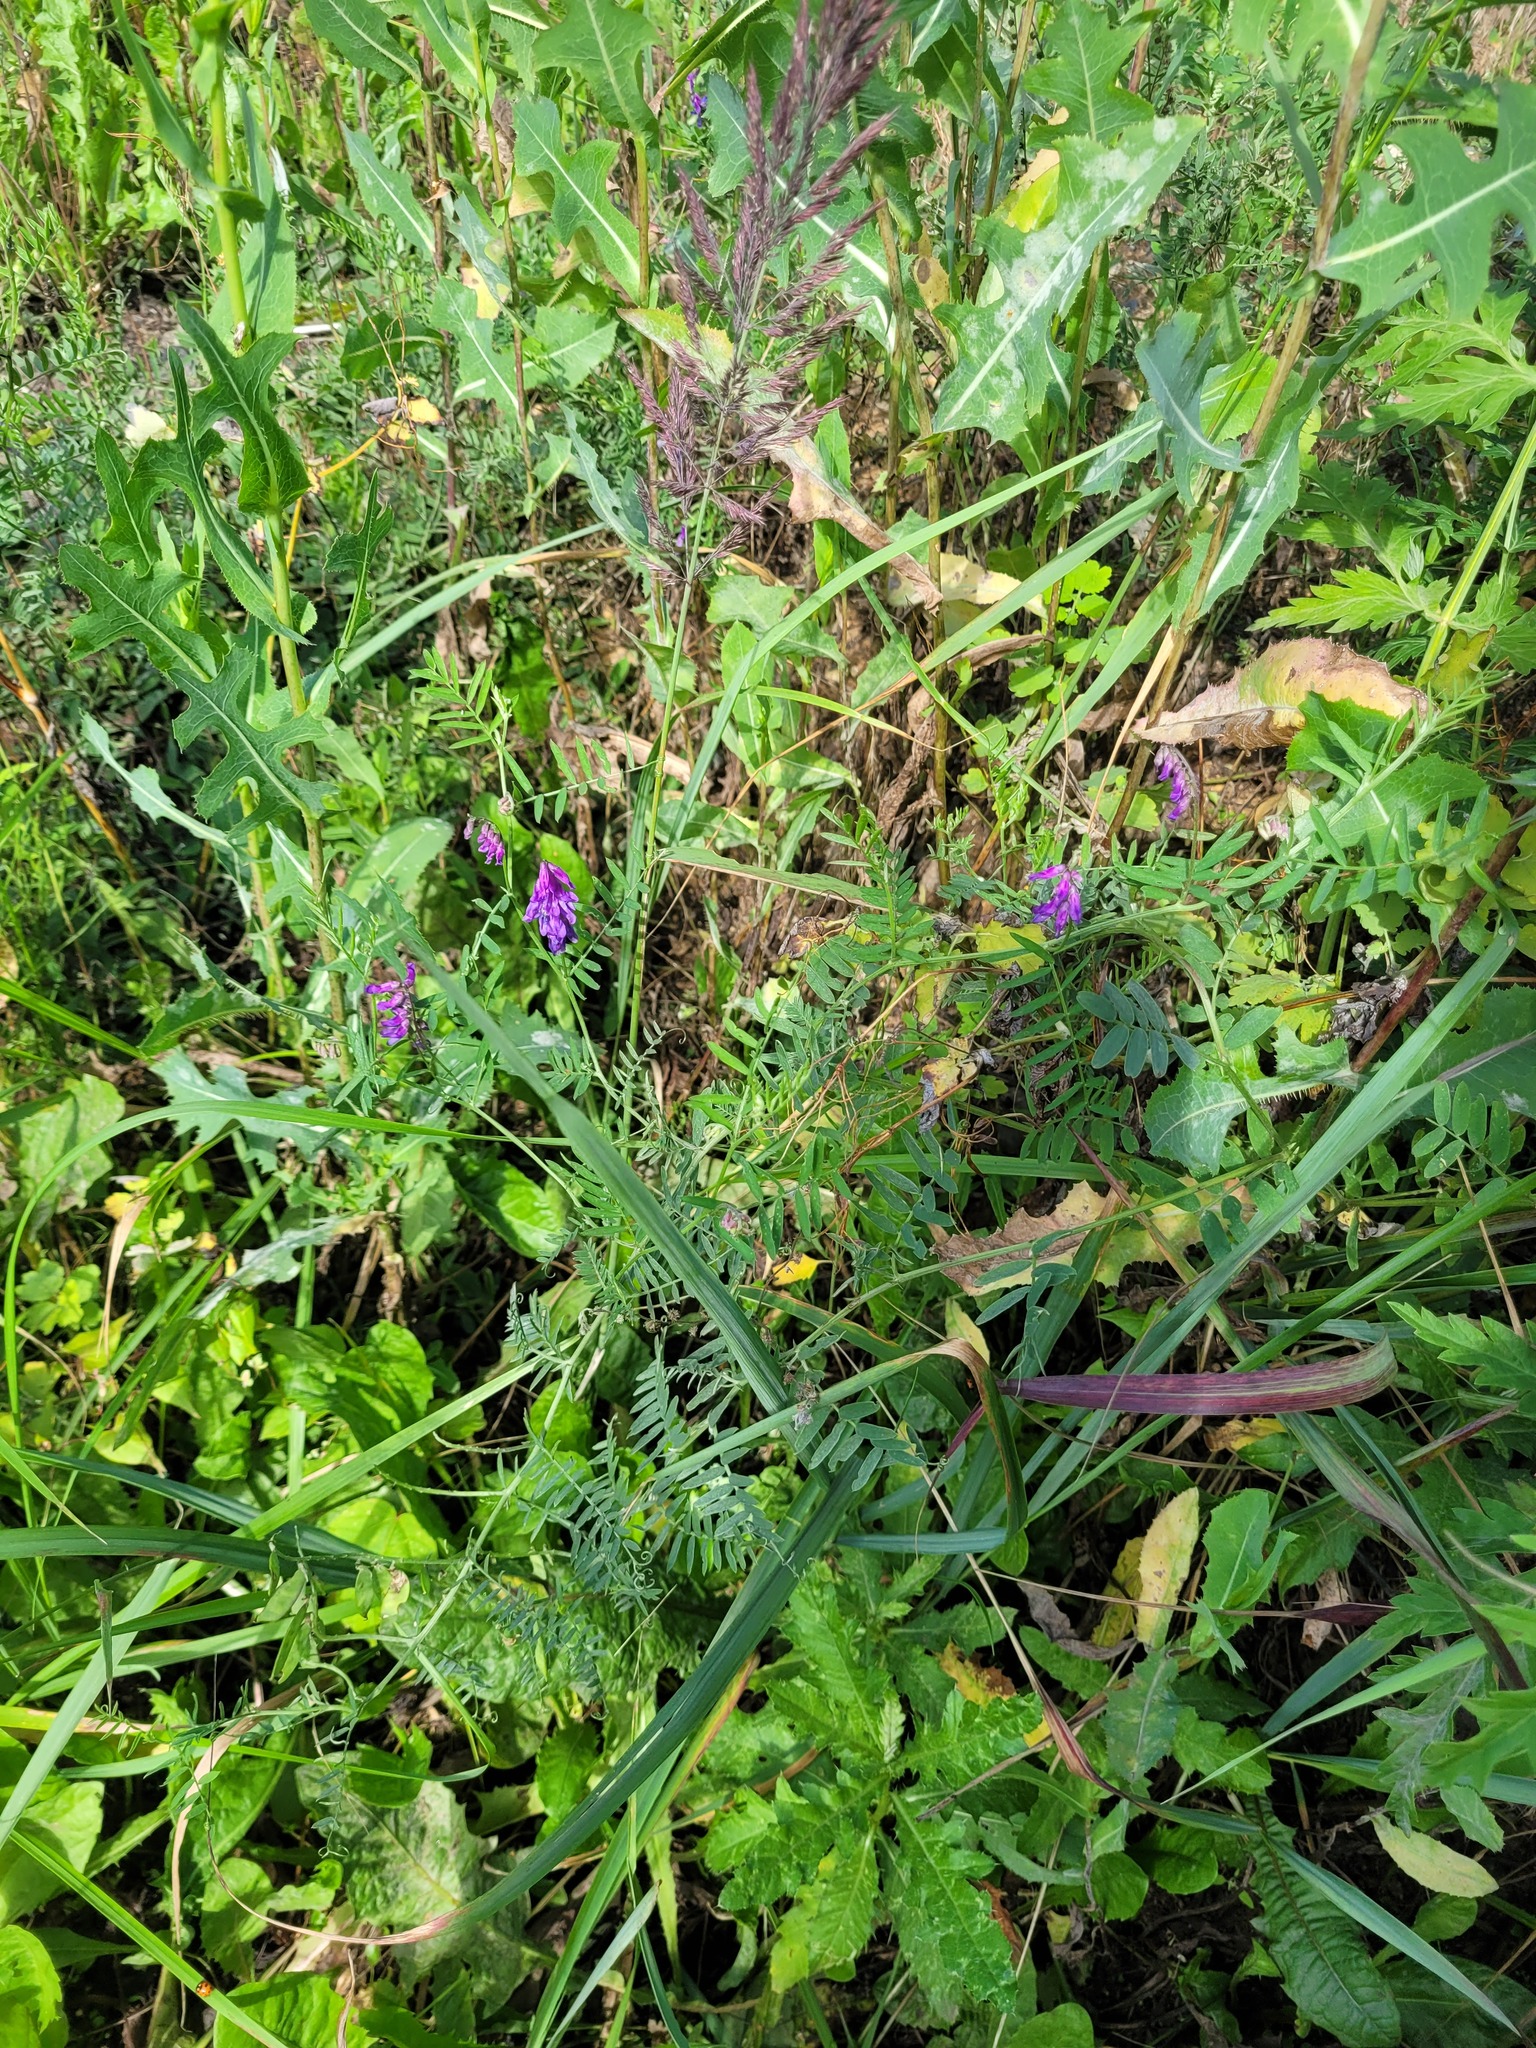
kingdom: Plantae
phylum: Tracheophyta
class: Magnoliopsida
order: Fabales
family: Fabaceae
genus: Vicia
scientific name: Vicia cracca
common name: Bird vetch
